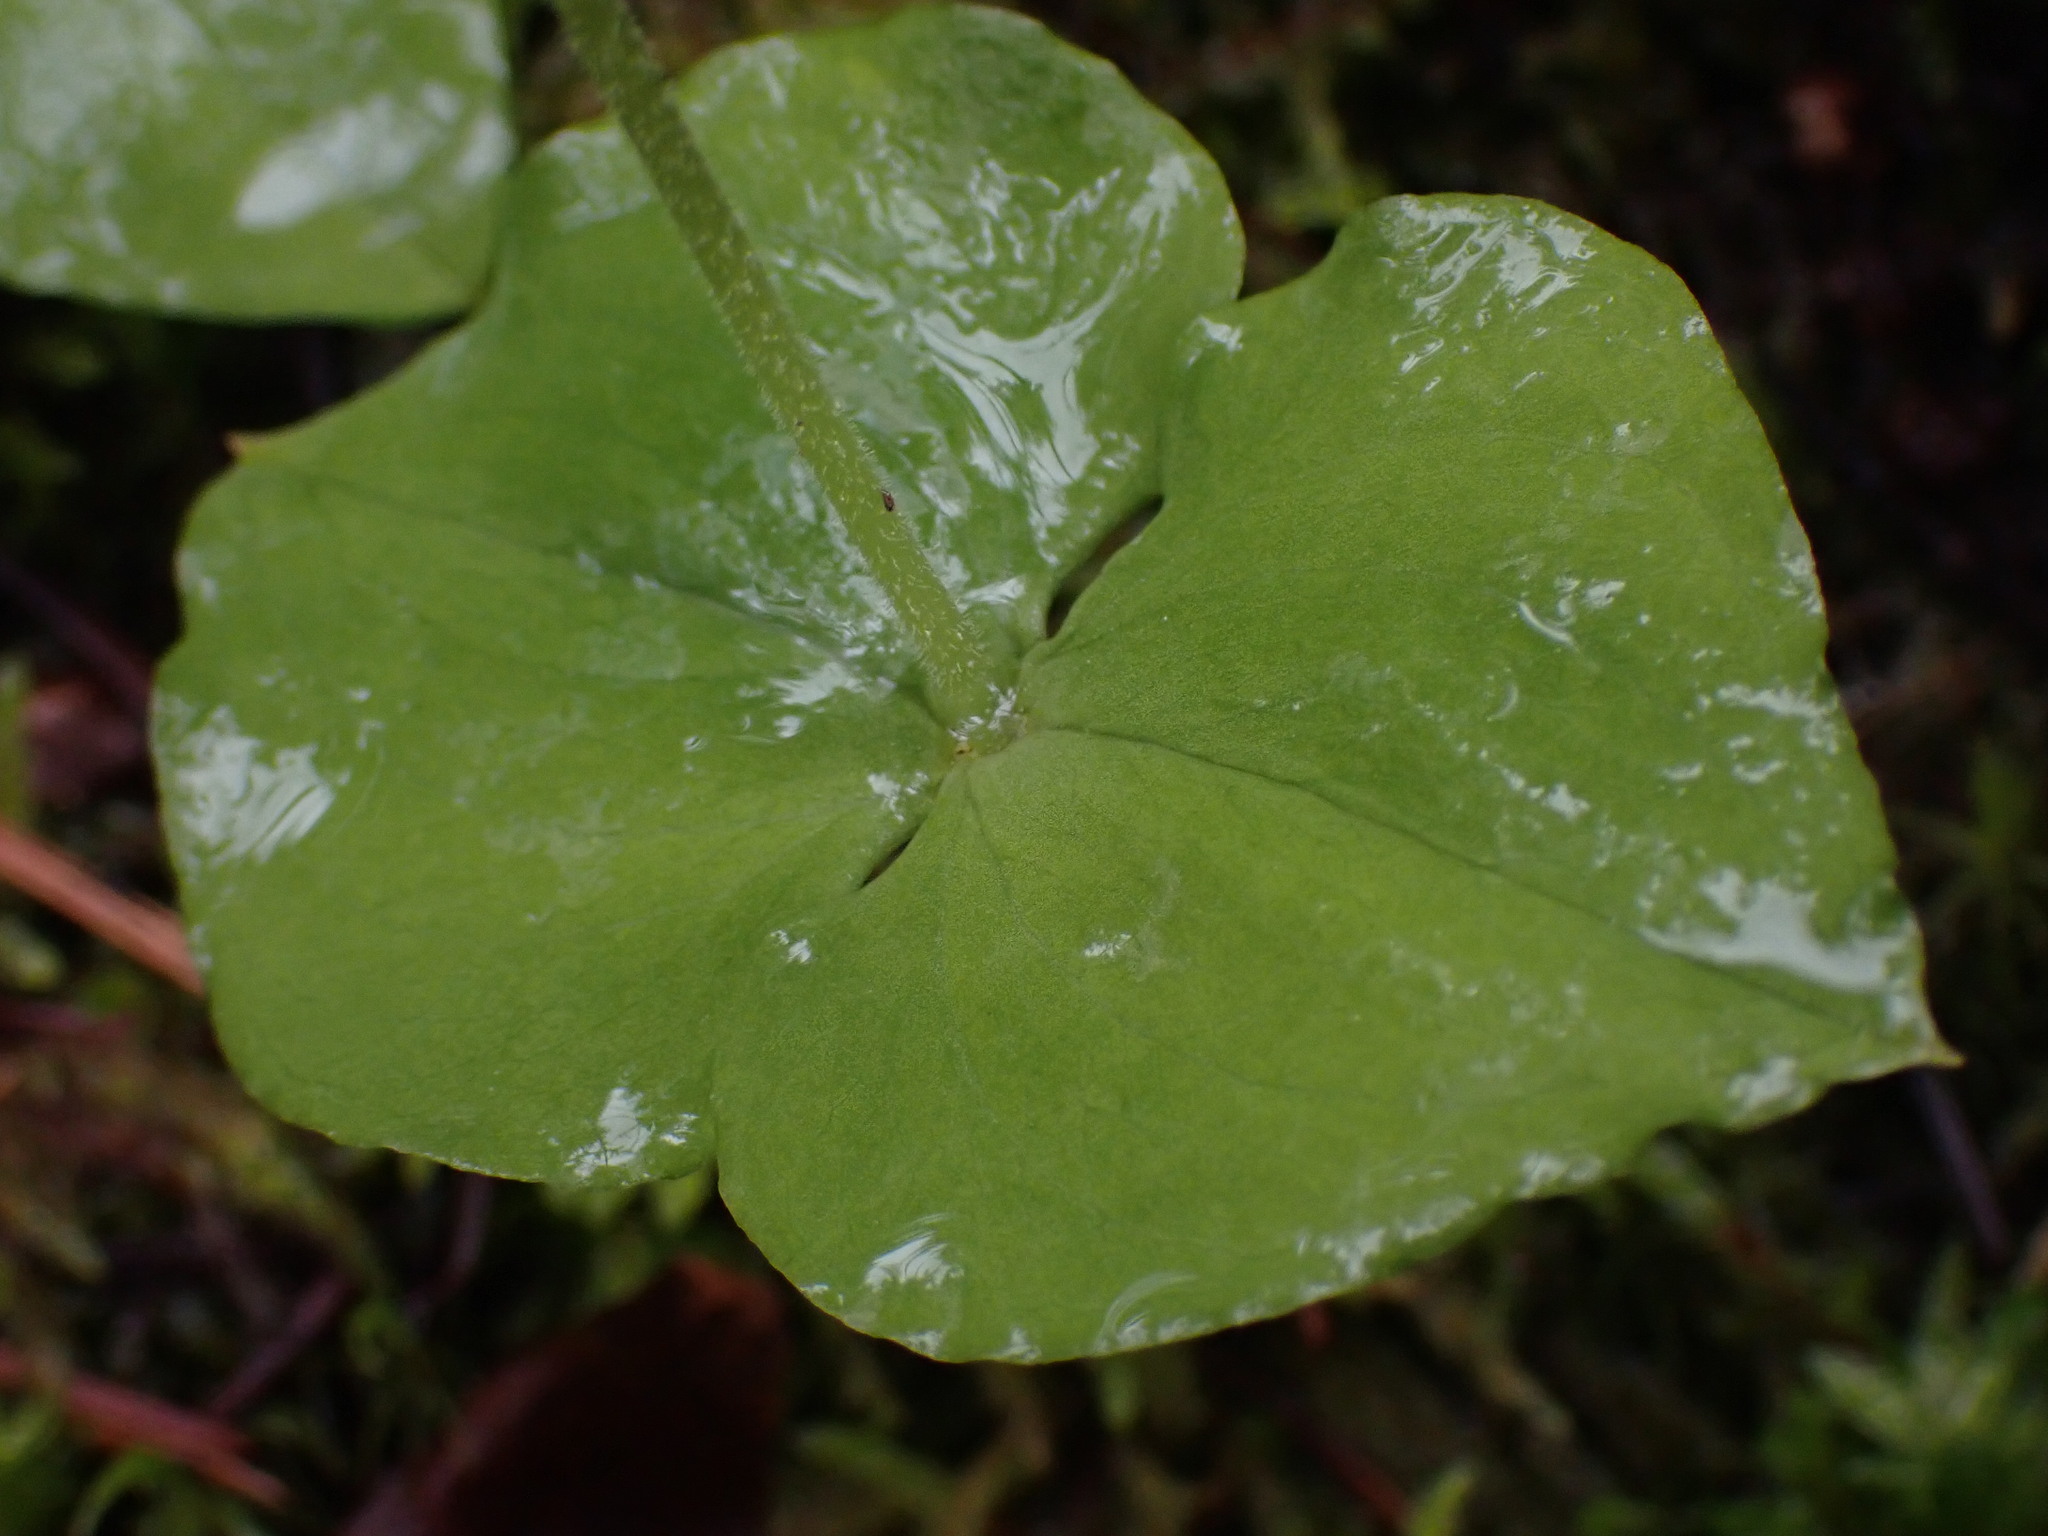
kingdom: Plantae
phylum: Tracheophyta
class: Liliopsida
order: Asparagales
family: Orchidaceae
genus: Neottia
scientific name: Neottia cordata
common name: Lesser twayblade
